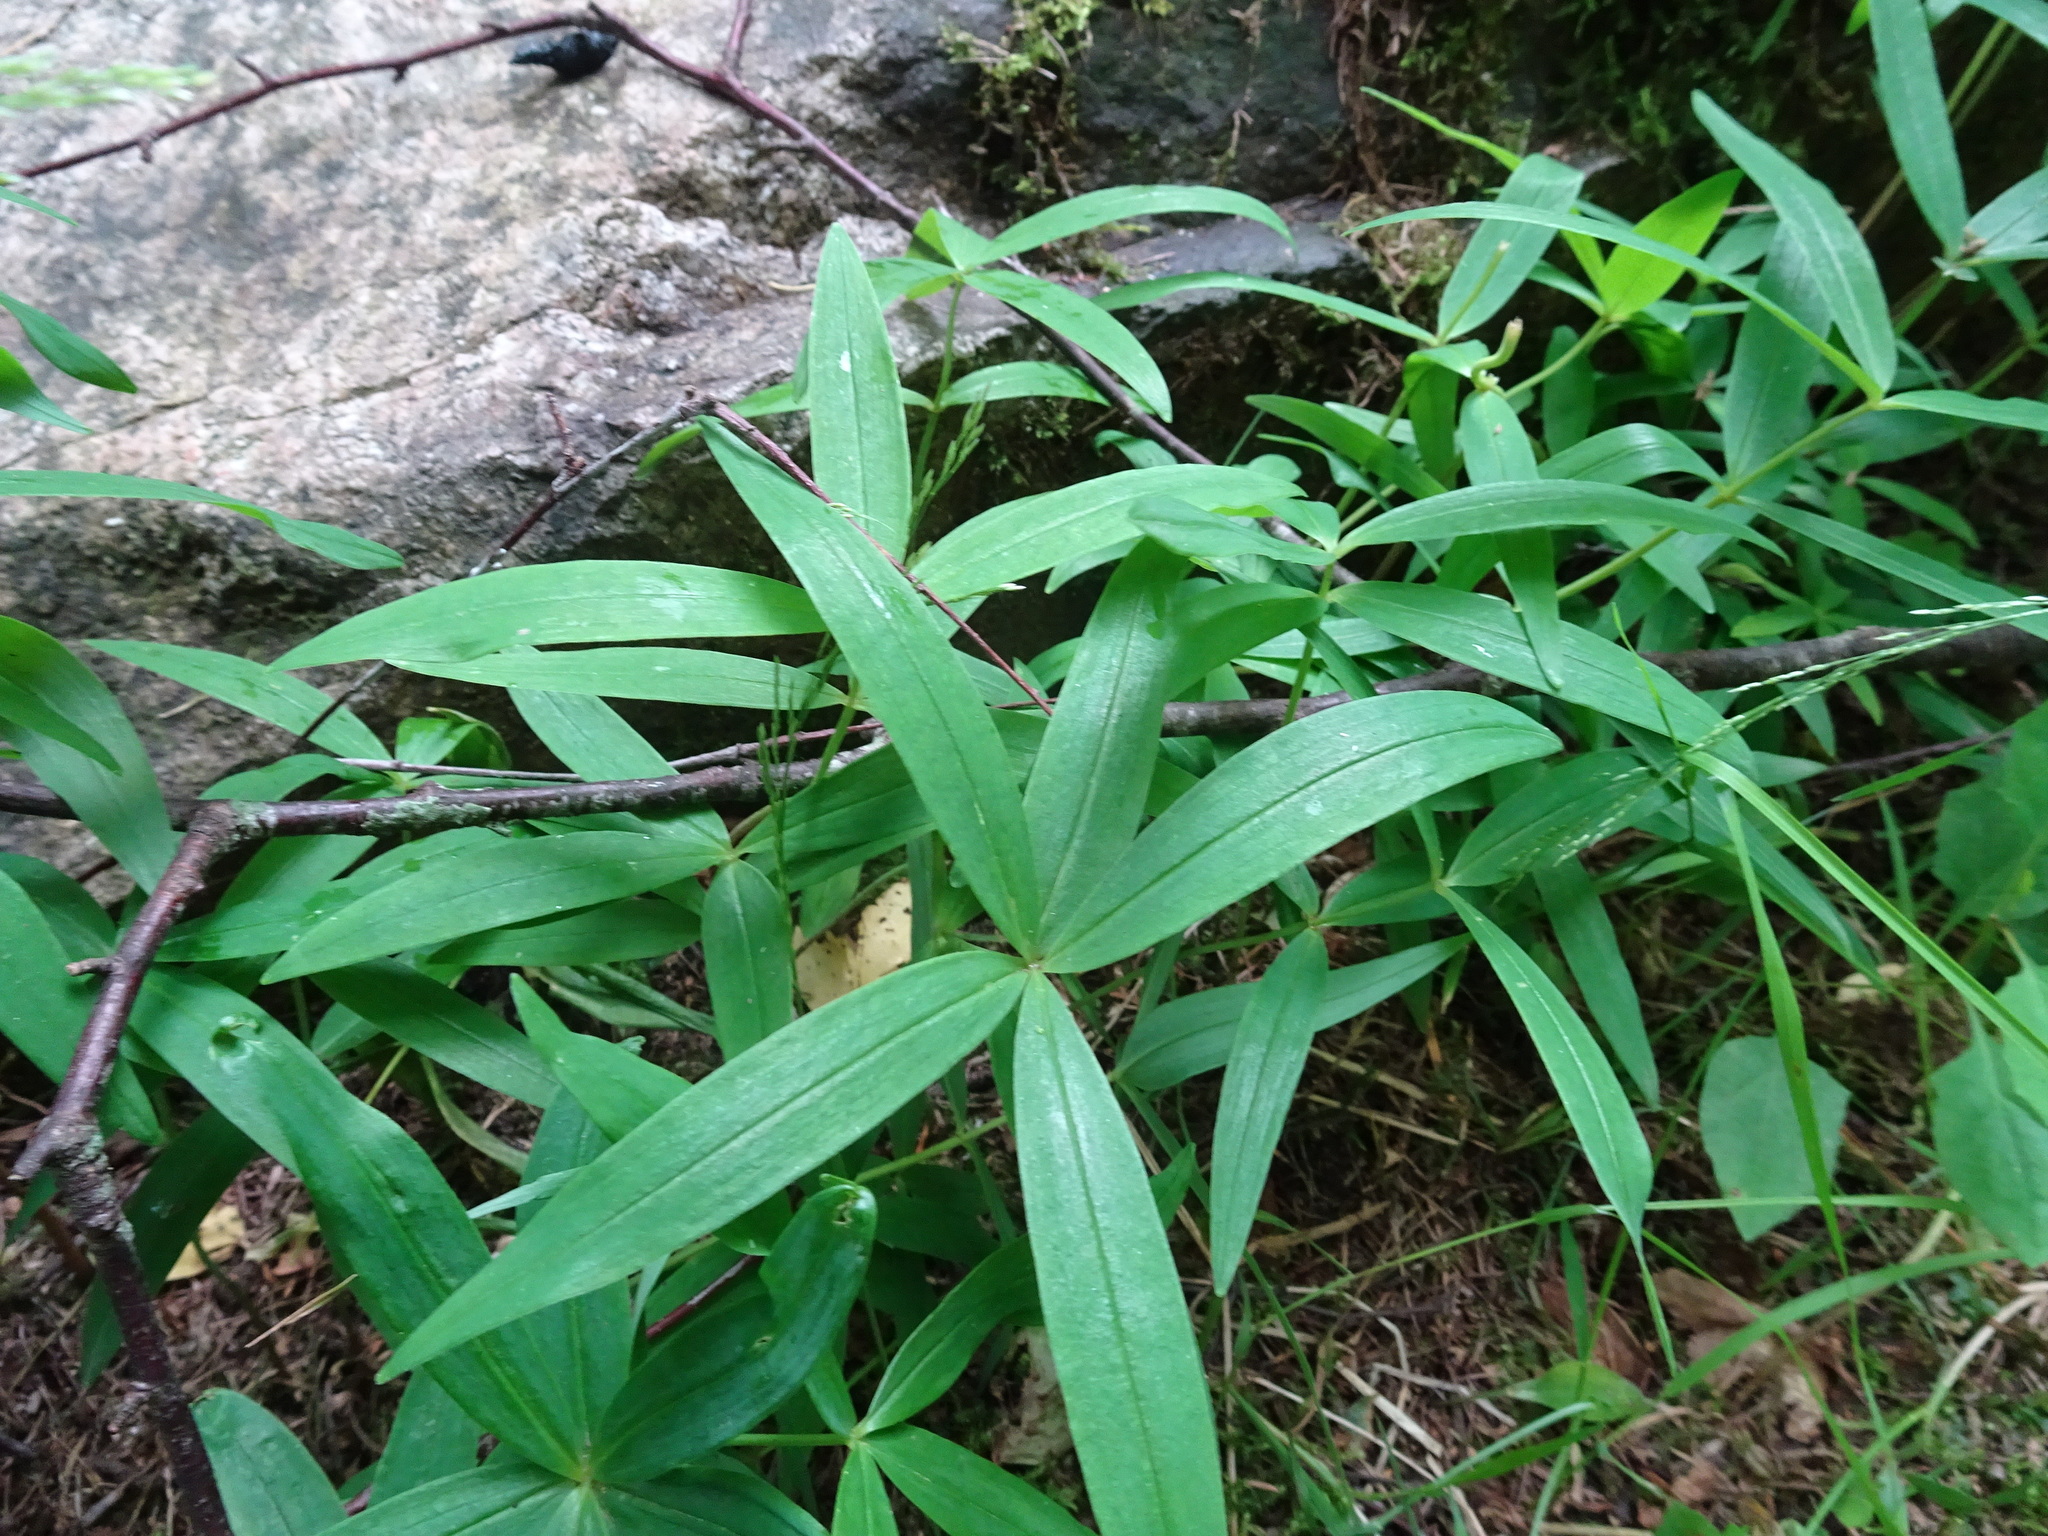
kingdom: Plantae
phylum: Tracheophyta
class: Liliopsida
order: Asparagales
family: Asparagaceae
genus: Polygonatum
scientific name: Polygonatum verticillatum
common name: Whorled solomon's-seal
